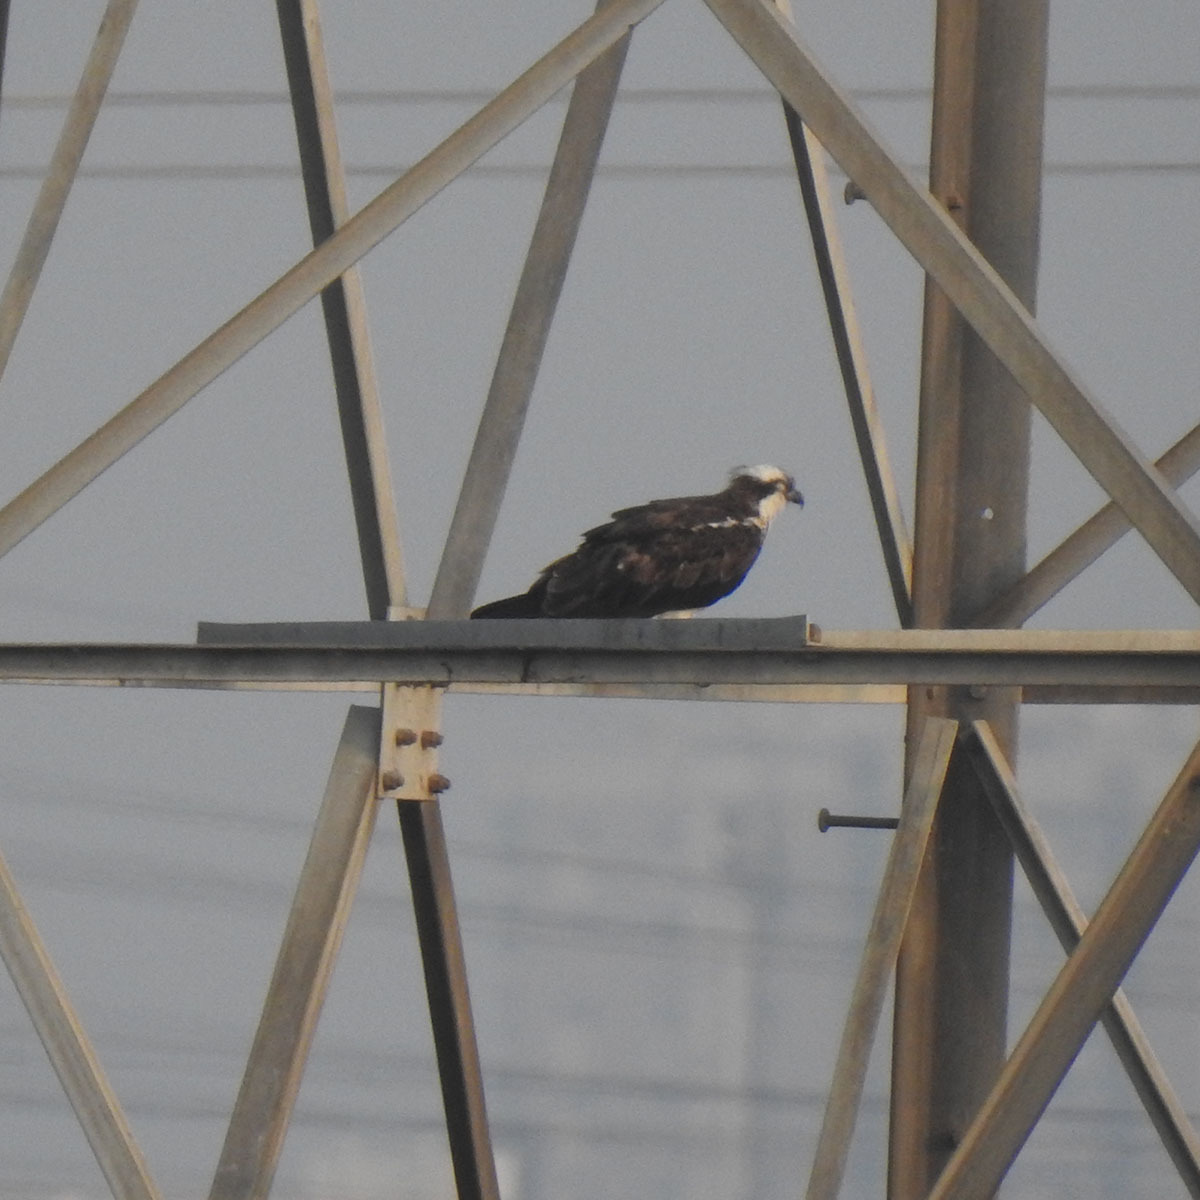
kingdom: Animalia
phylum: Chordata
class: Aves
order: Accipitriformes
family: Pandionidae
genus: Pandion
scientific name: Pandion haliaetus
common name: Osprey
